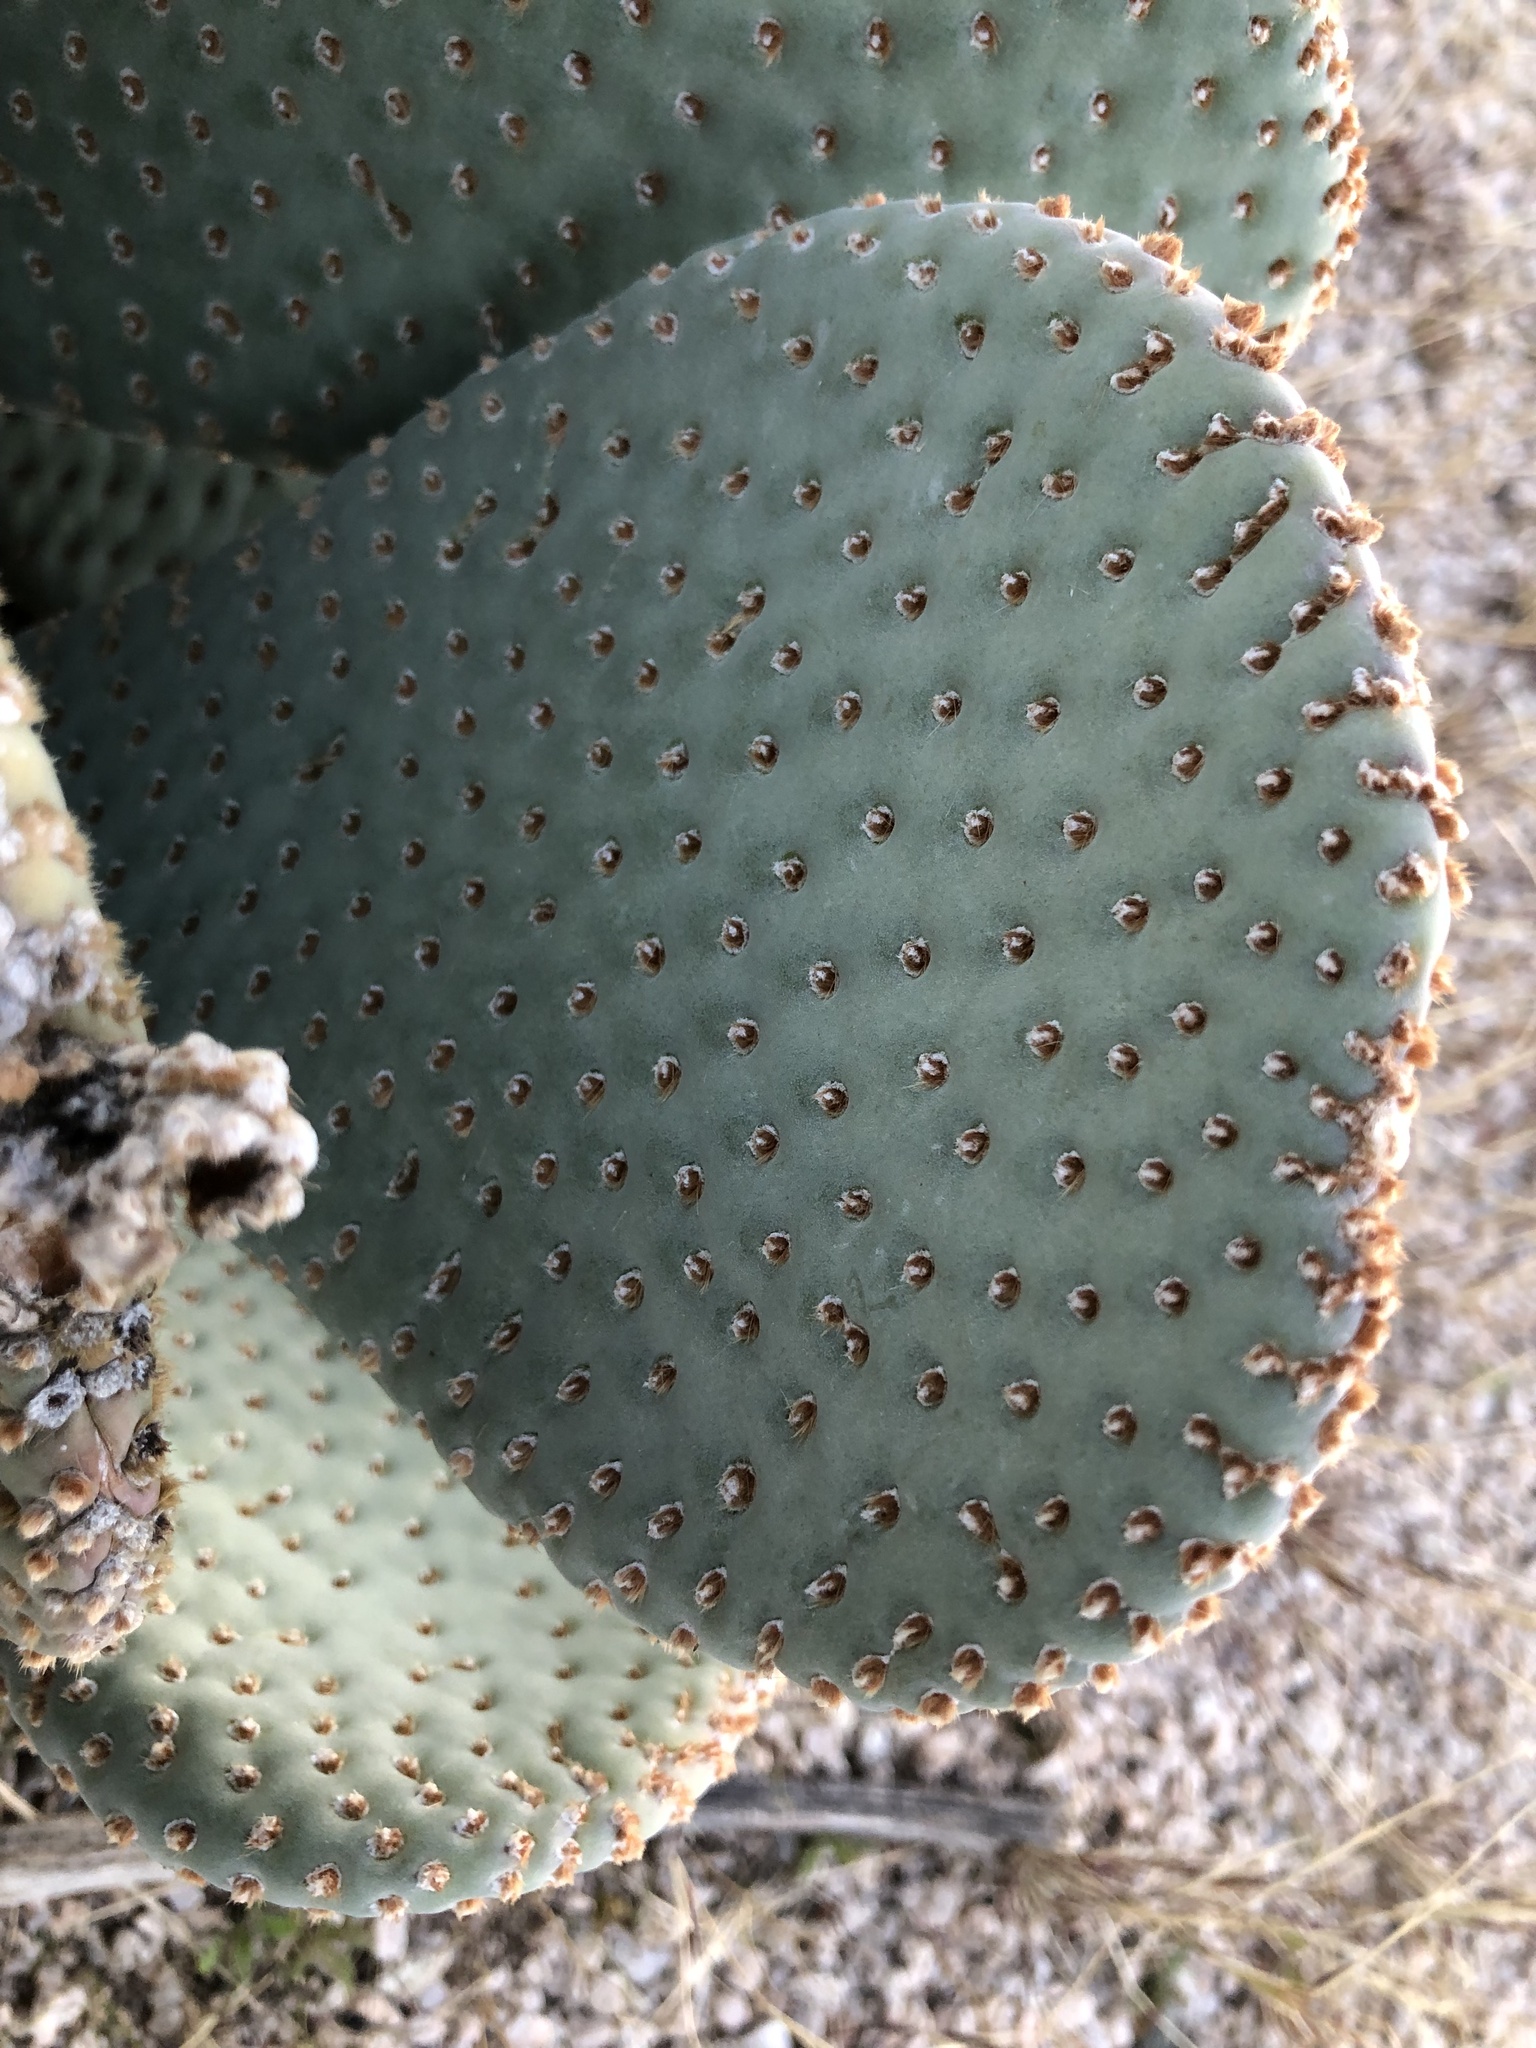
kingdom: Plantae
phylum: Tracheophyta
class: Magnoliopsida
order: Caryophyllales
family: Cactaceae
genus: Opuntia
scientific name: Opuntia basilaris
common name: Beavertail prickly-pear
